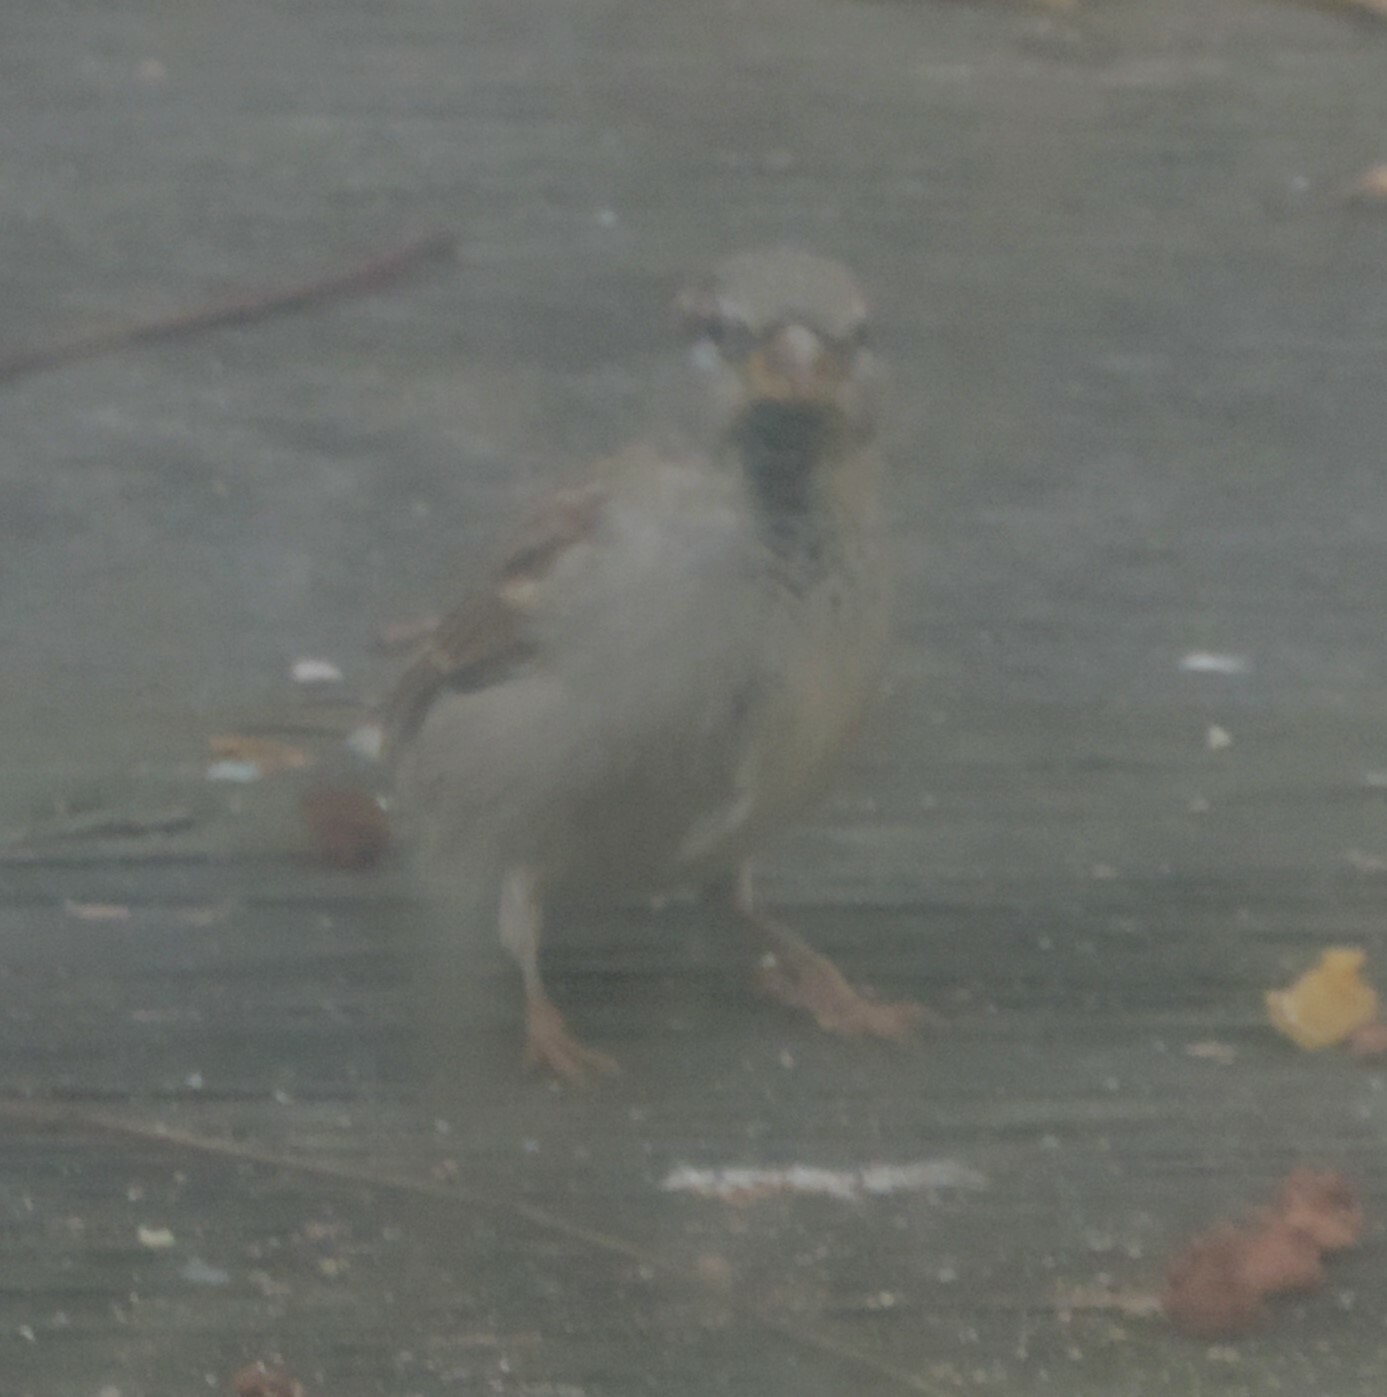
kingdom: Animalia
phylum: Chordata
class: Aves
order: Passeriformes
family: Passeridae
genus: Passer
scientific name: Passer domesticus
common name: House sparrow
